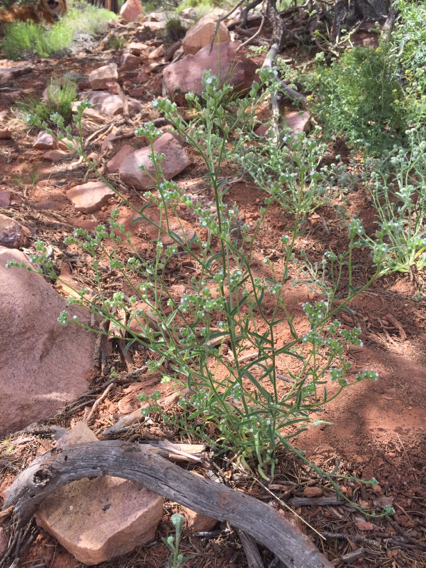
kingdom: Plantae
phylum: Tracheophyta
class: Magnoliopsida
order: Boraginales
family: Boraginaceae
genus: Cryptantha
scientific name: Cryptantha pterocarya
